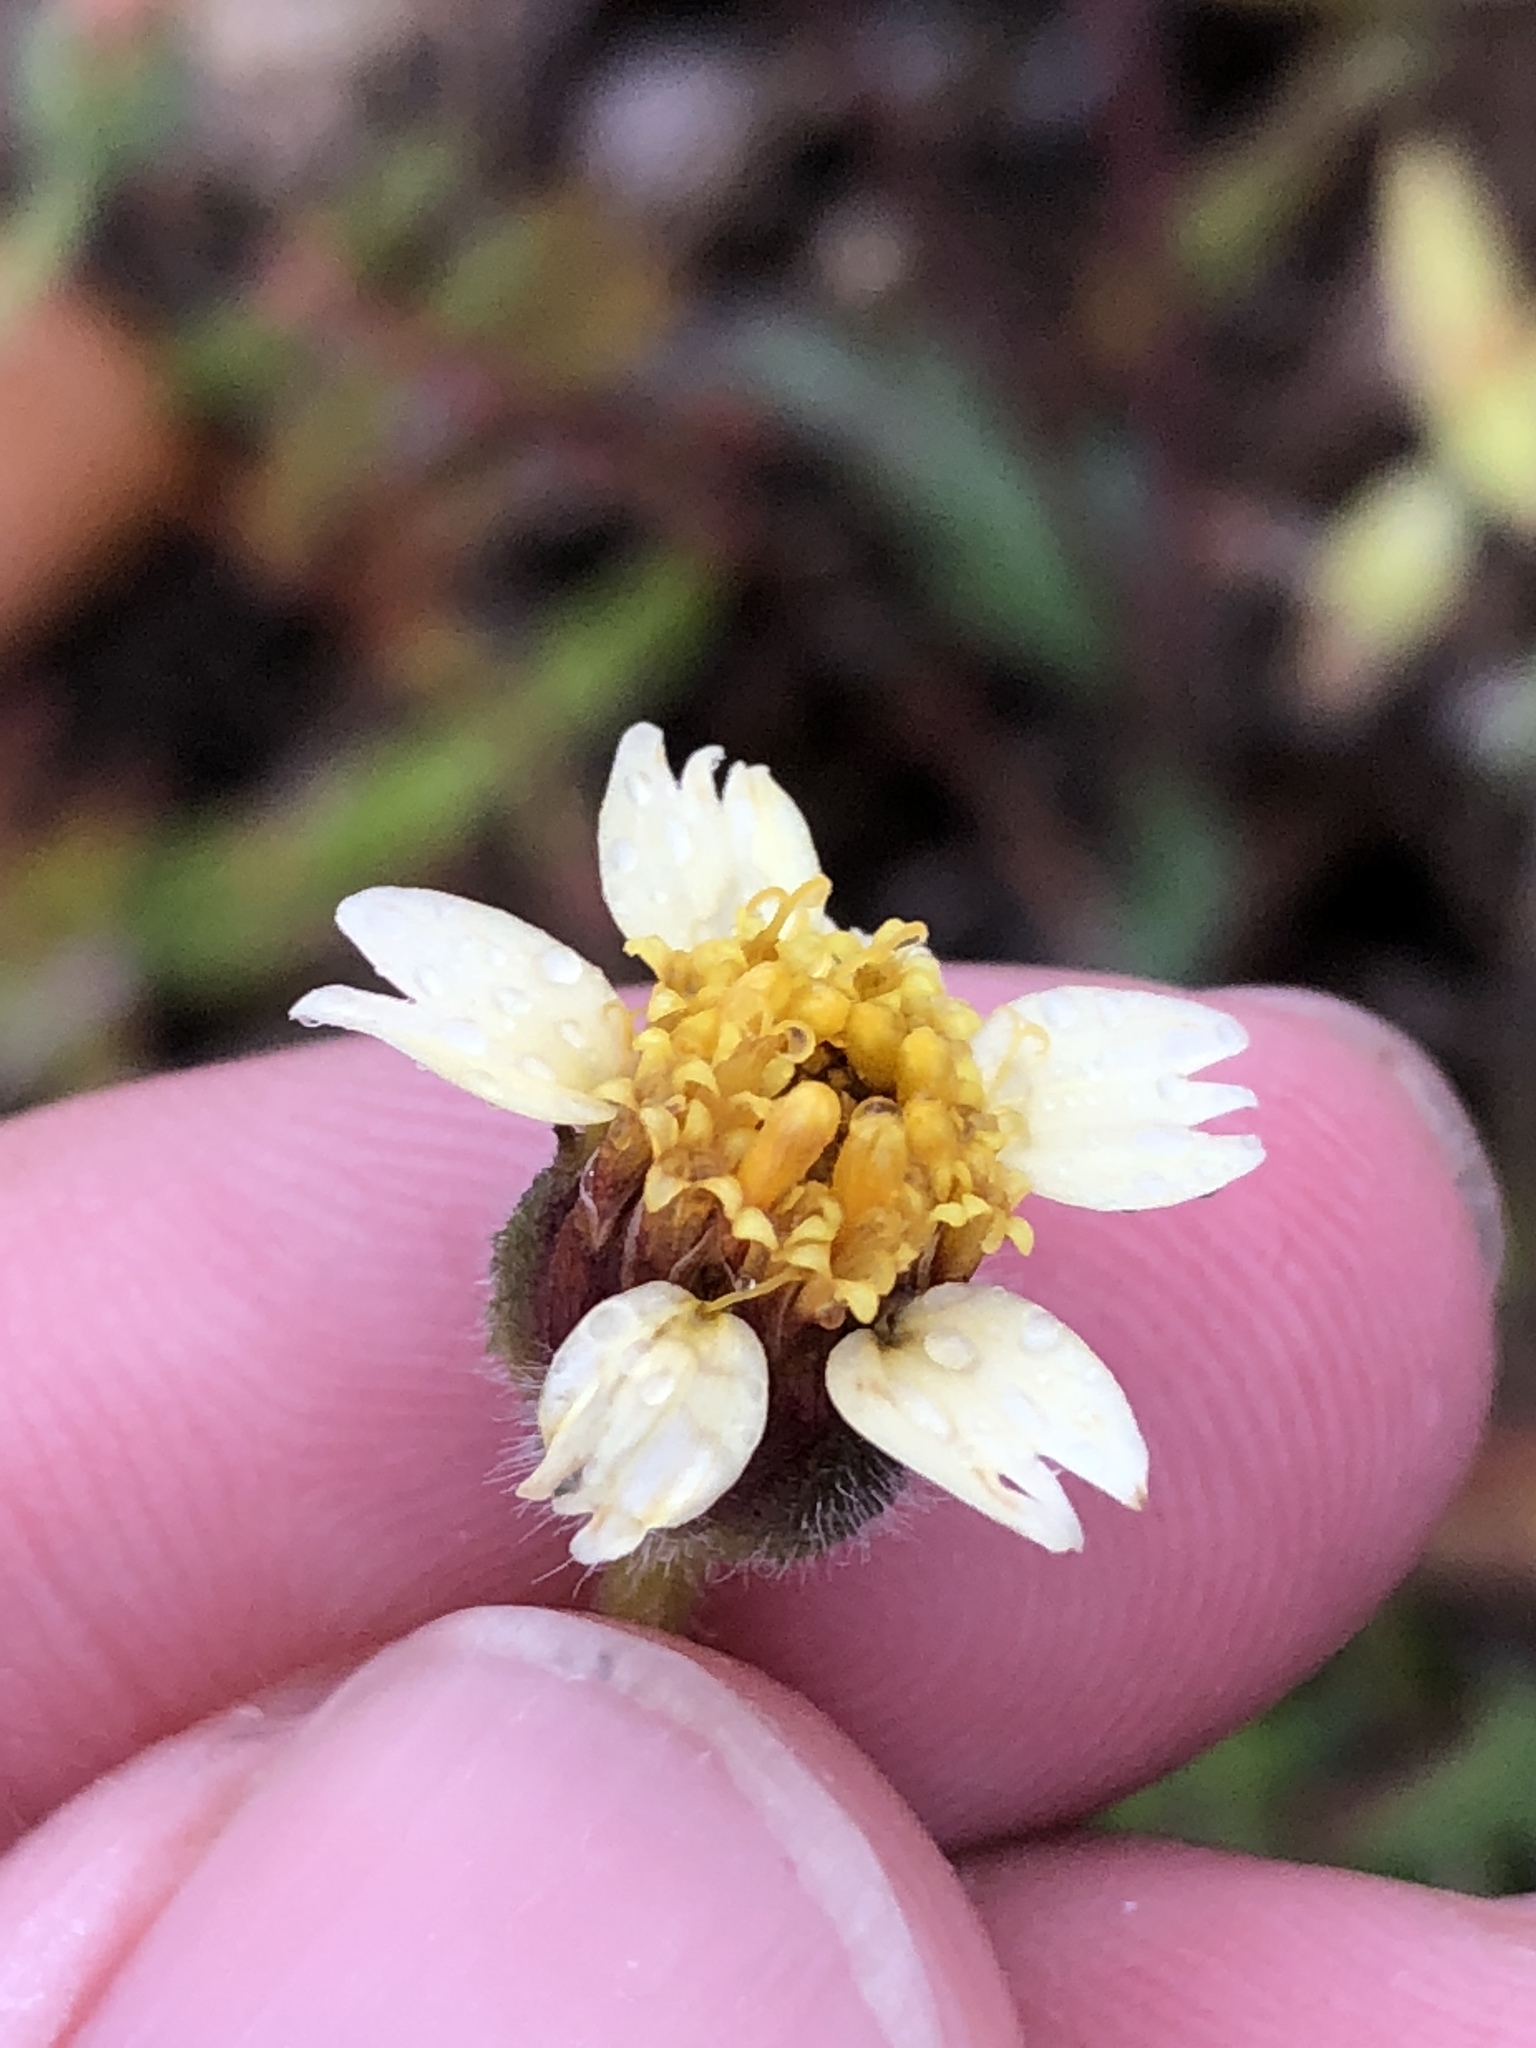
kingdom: Plantae
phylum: Tracheophyta
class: Magnoliopsida
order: Asterales
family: Asteraceae
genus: Tridax
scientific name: Tridax procumbens
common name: Coatbuttons
